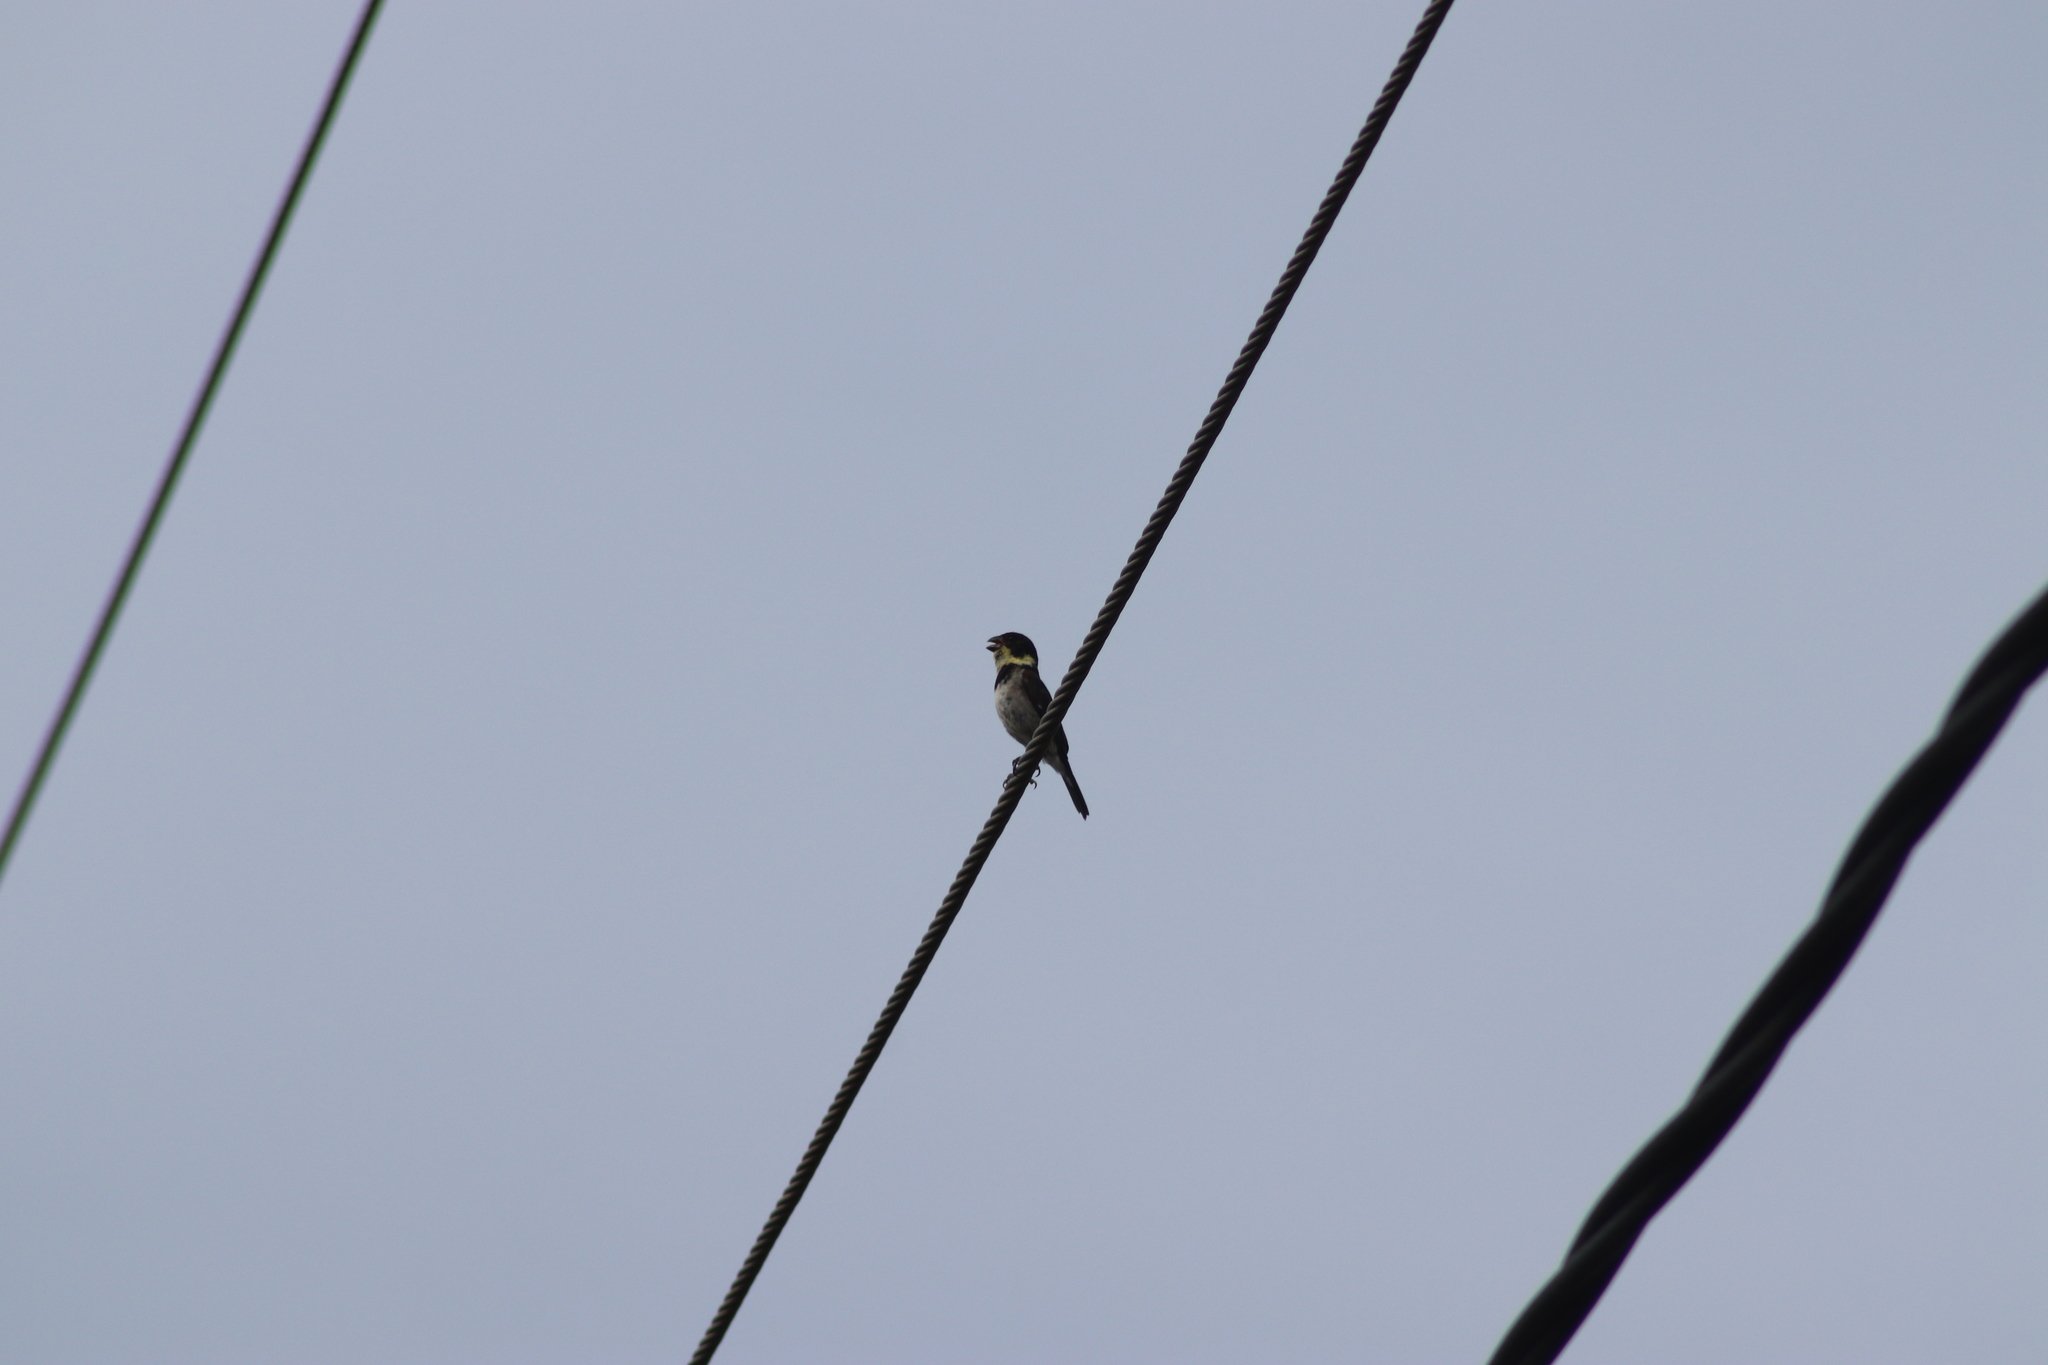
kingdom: Animalia
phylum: Chordata
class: Aves
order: Passeriformes
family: Thraupidae
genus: Sporophila
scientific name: Sporophila corvina
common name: Variable seedeater
